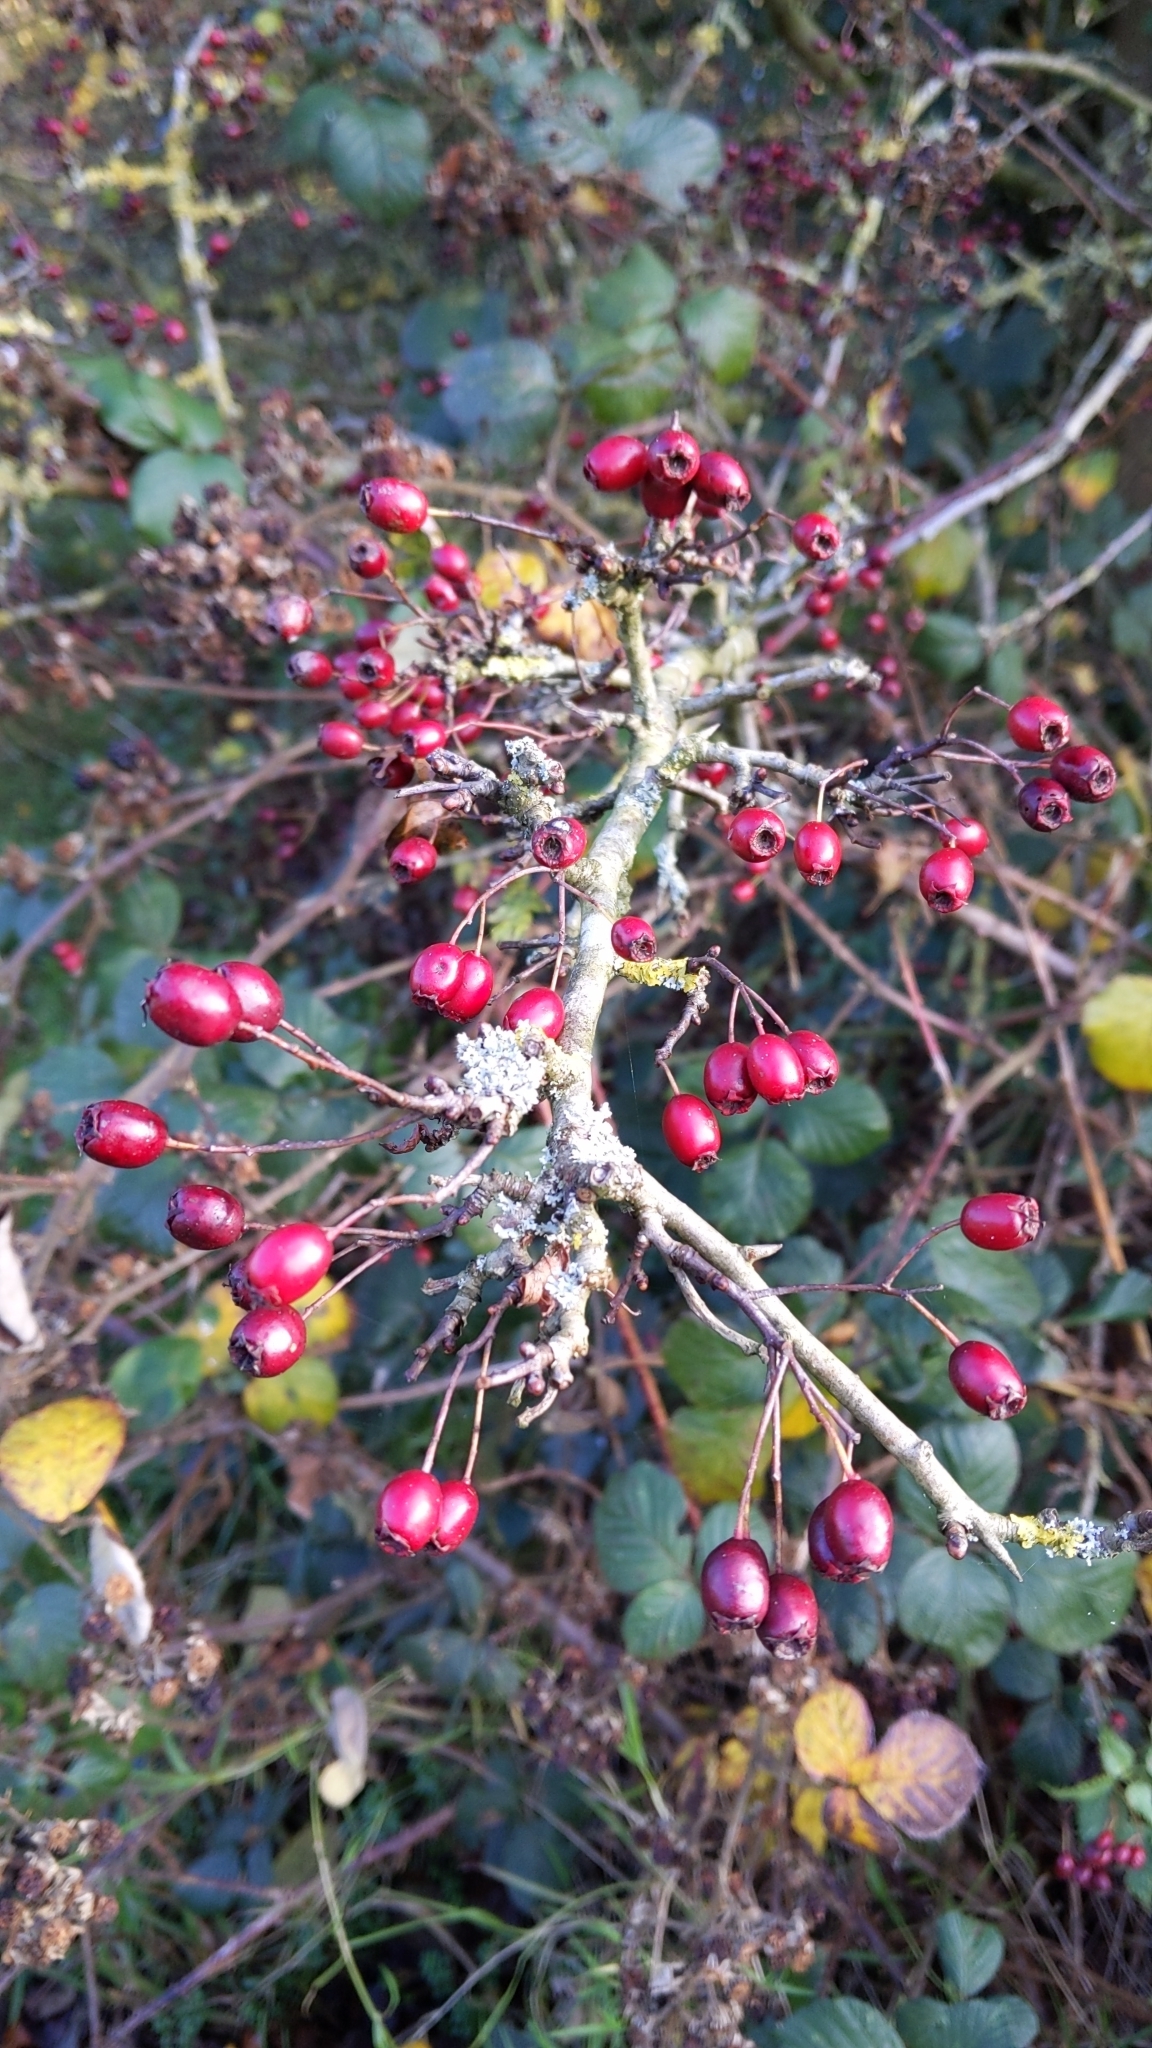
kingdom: Plantae
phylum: Tracheophyta
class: Magnoliopsida
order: Rosales
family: Rosaceae
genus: Crataegus
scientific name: Crataegus monogyna
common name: Hawthorn
